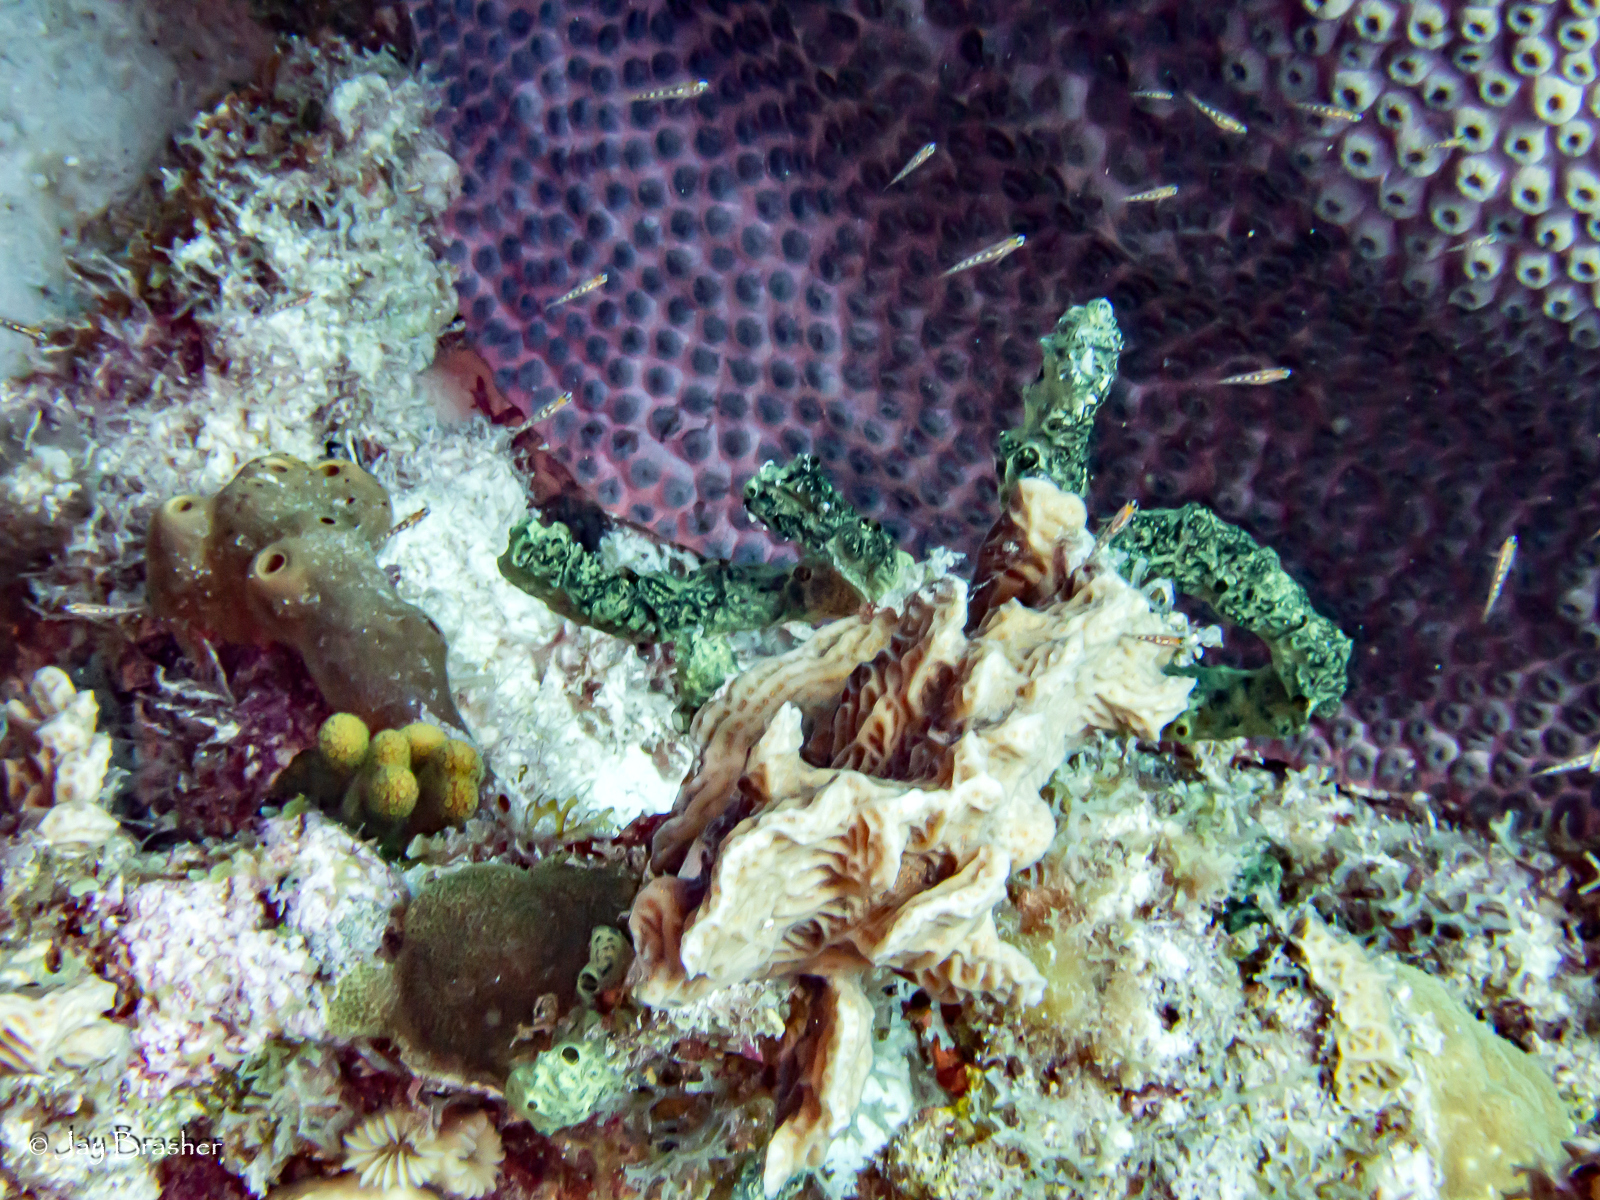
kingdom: Animalia
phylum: Cnidaria
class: Anthozoa
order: Scleractinia
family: Agariciidae
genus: Agaricia
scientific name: Agaricia agaricites
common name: Lettuce coral
